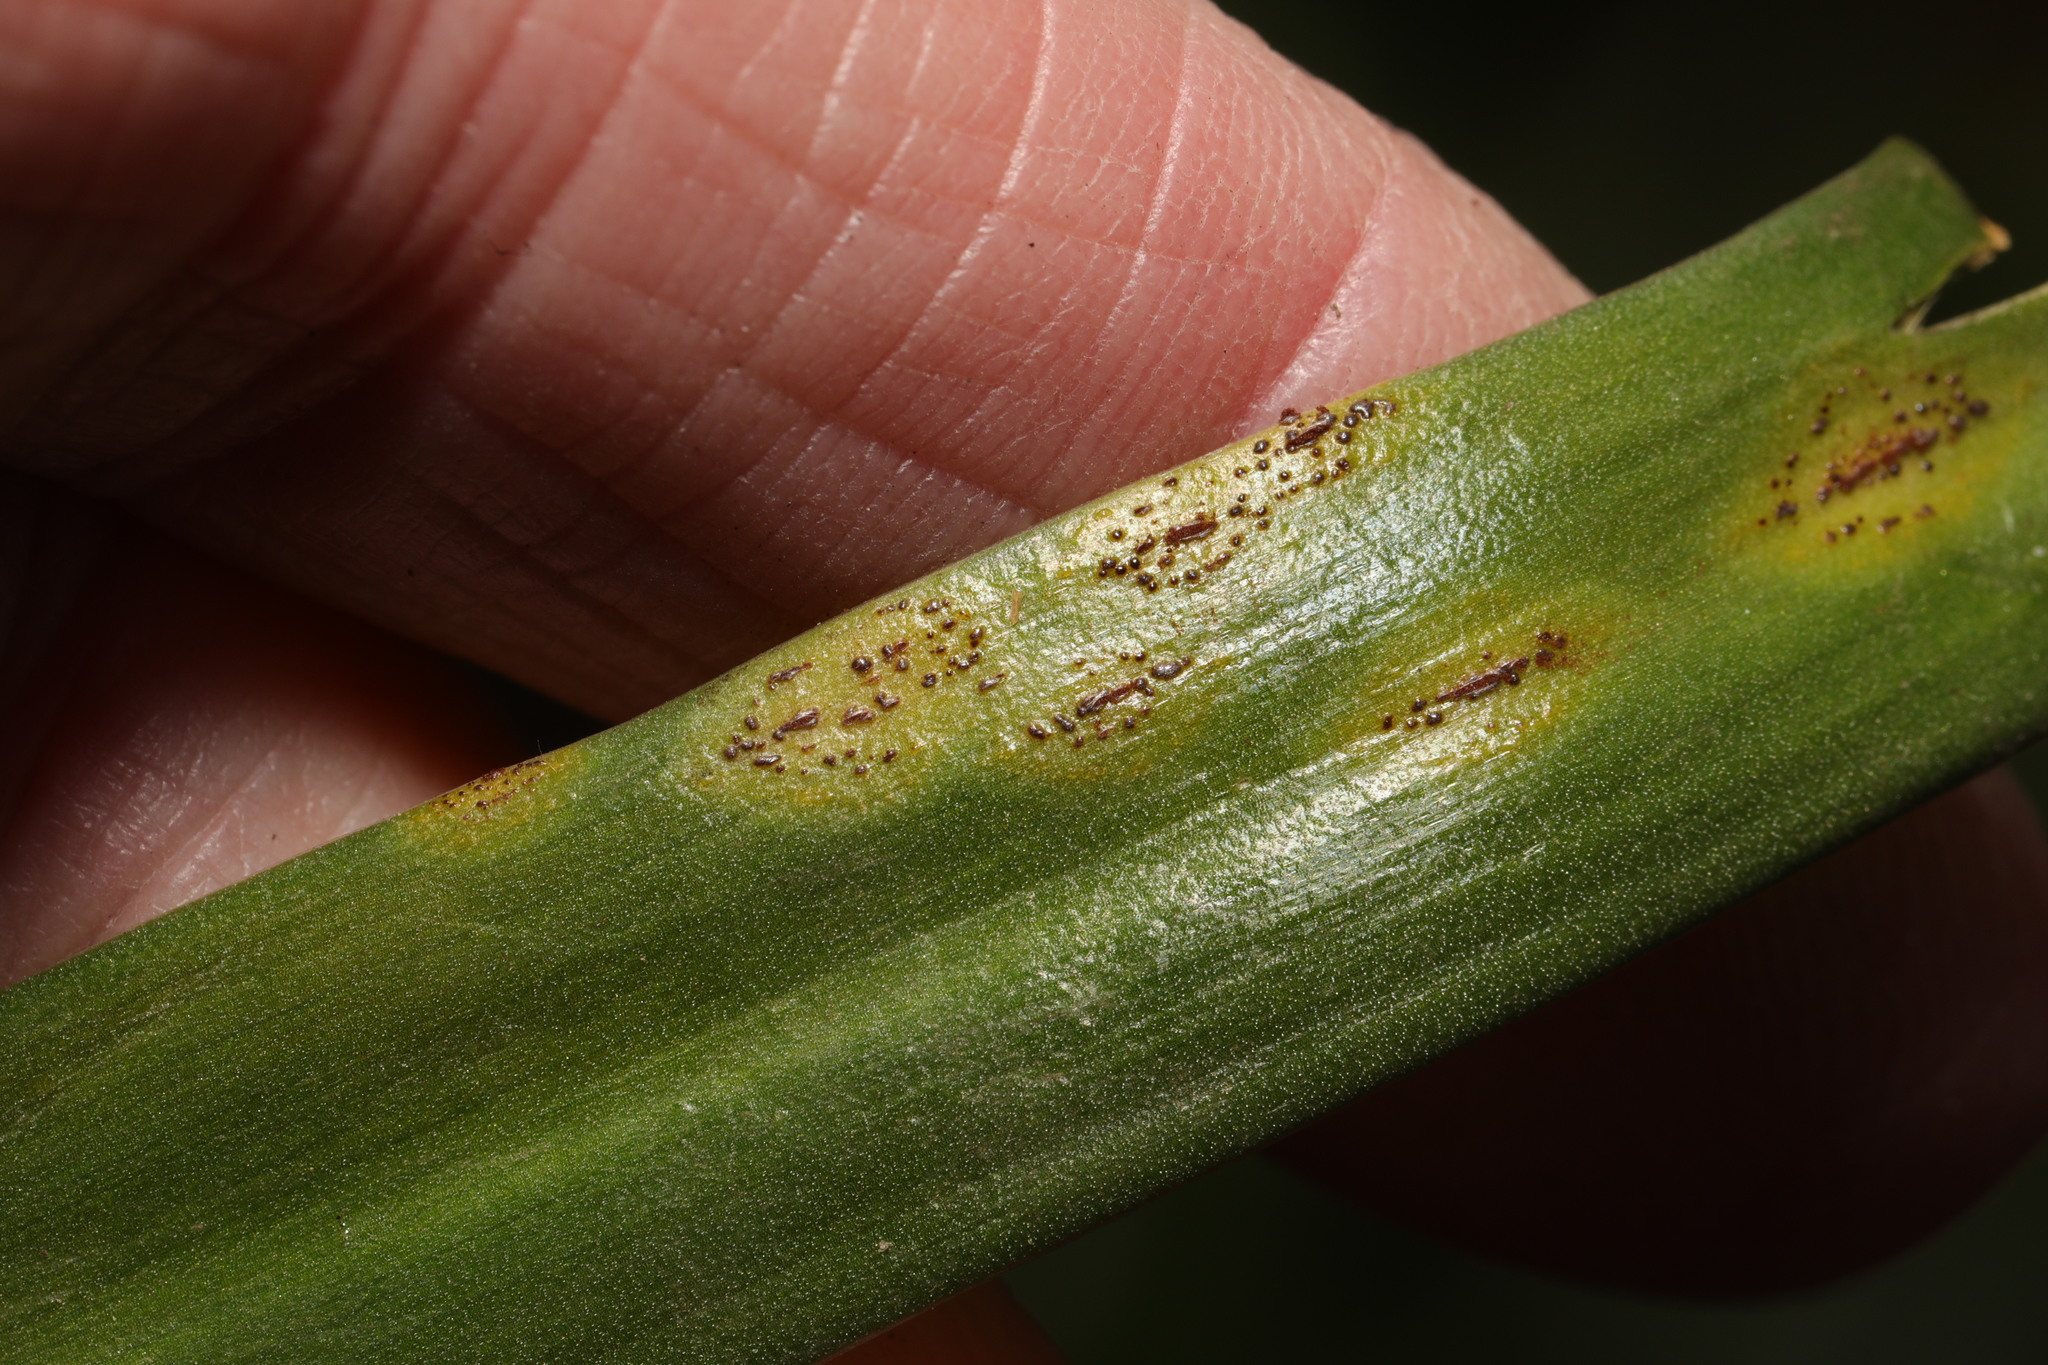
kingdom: Fungi
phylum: Basidiomycota
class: Pucciniomycetes
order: Pucciniales
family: Pucciniaceae
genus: Uromyces
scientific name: Uromyces hyacinthi
